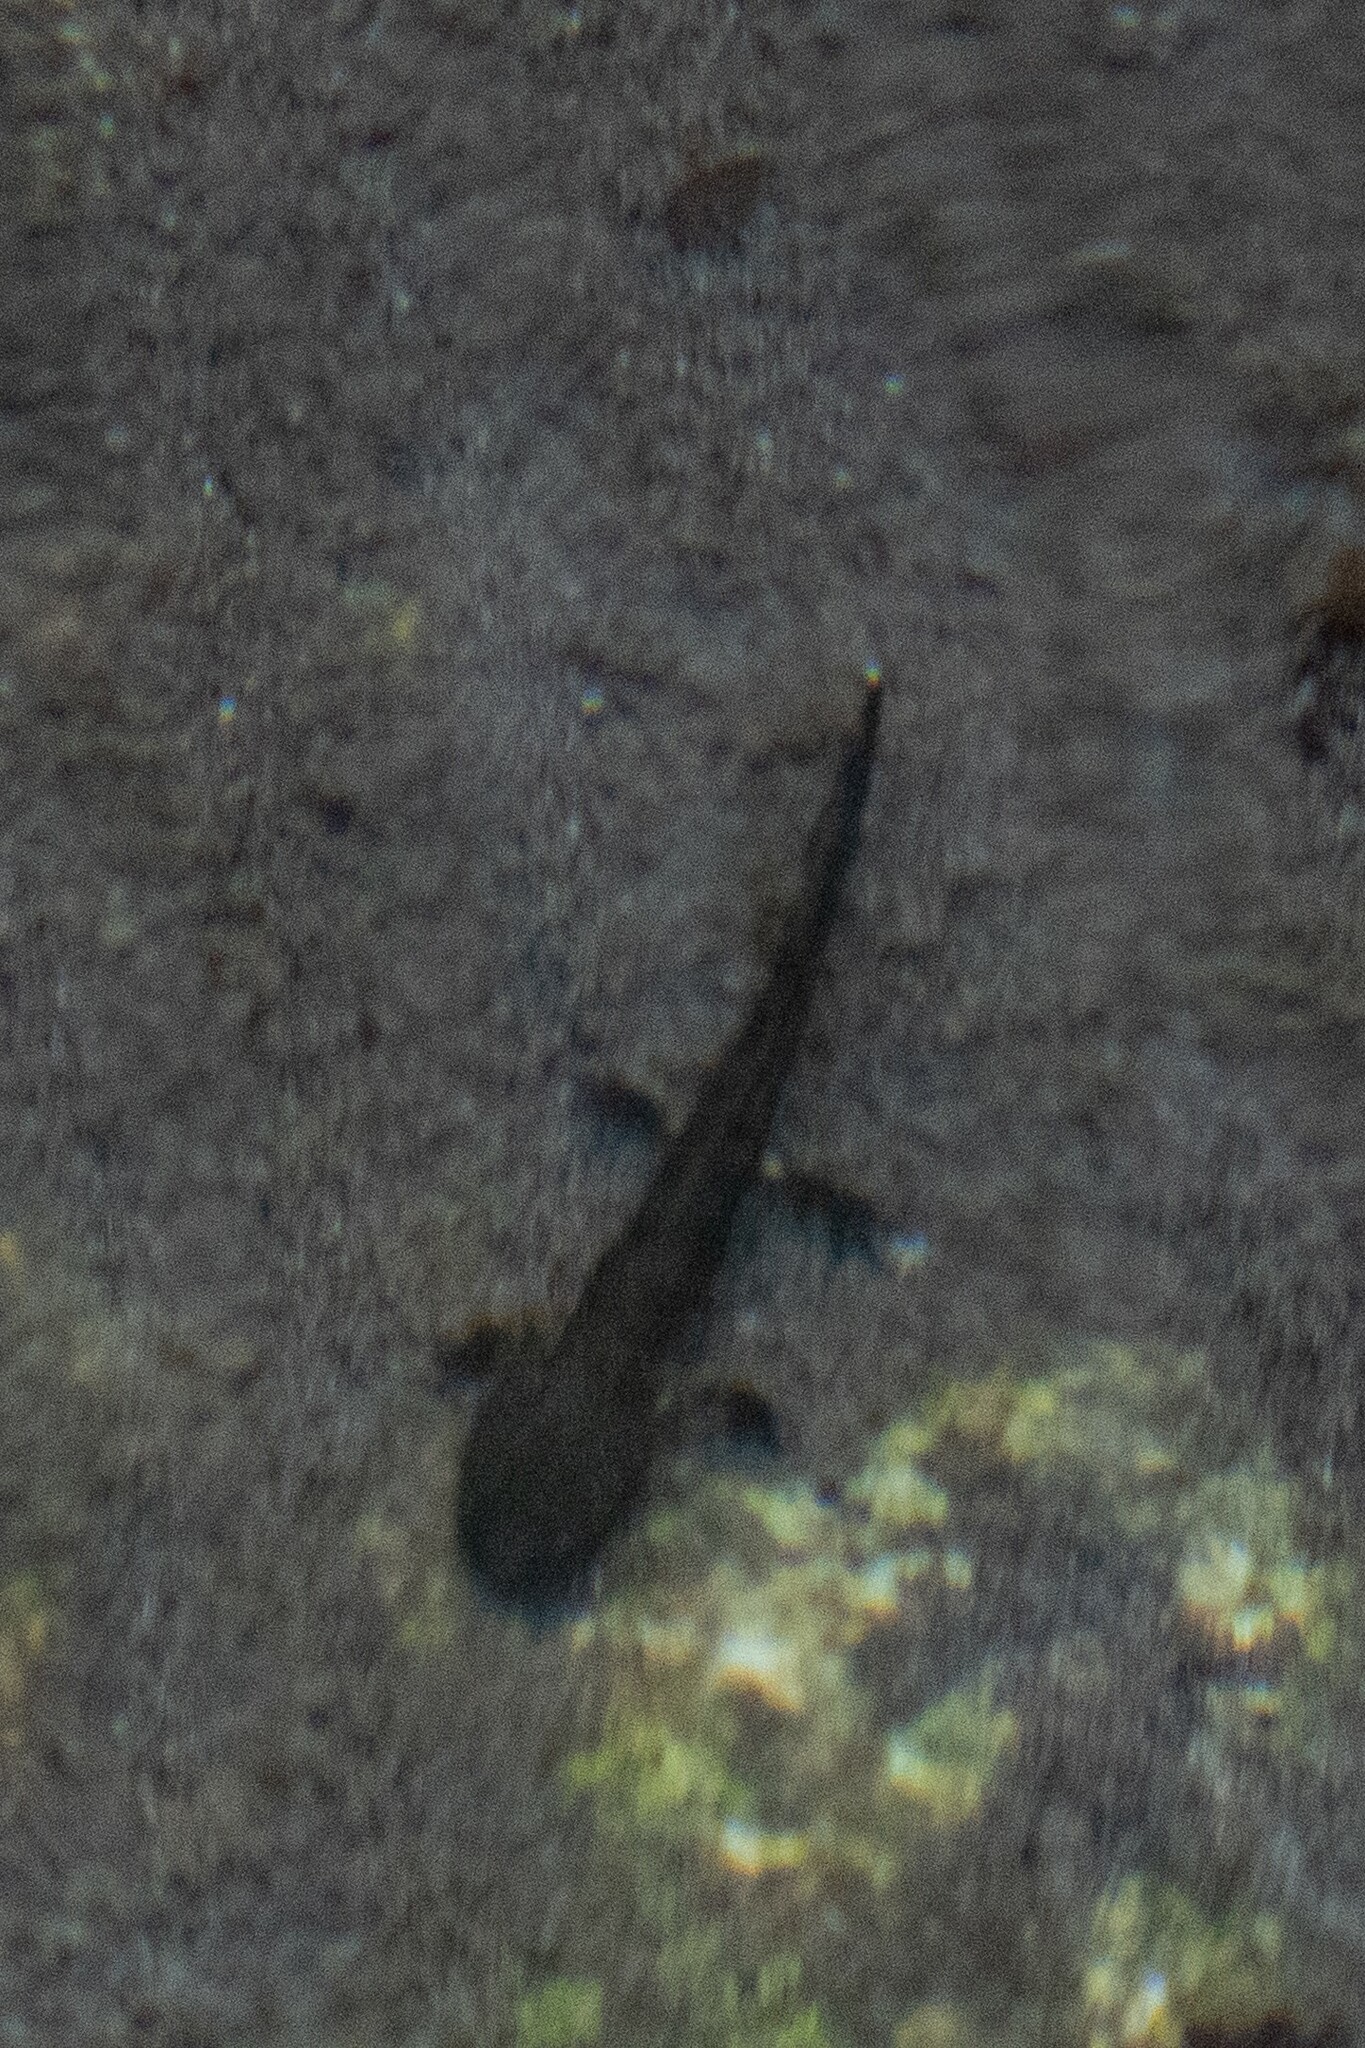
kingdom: Animalia
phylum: Chordata
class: Amphibia
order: Caudata
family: Salamandridae
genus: Salamandra
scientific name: Salamandra salamandra
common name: Fire salamander
